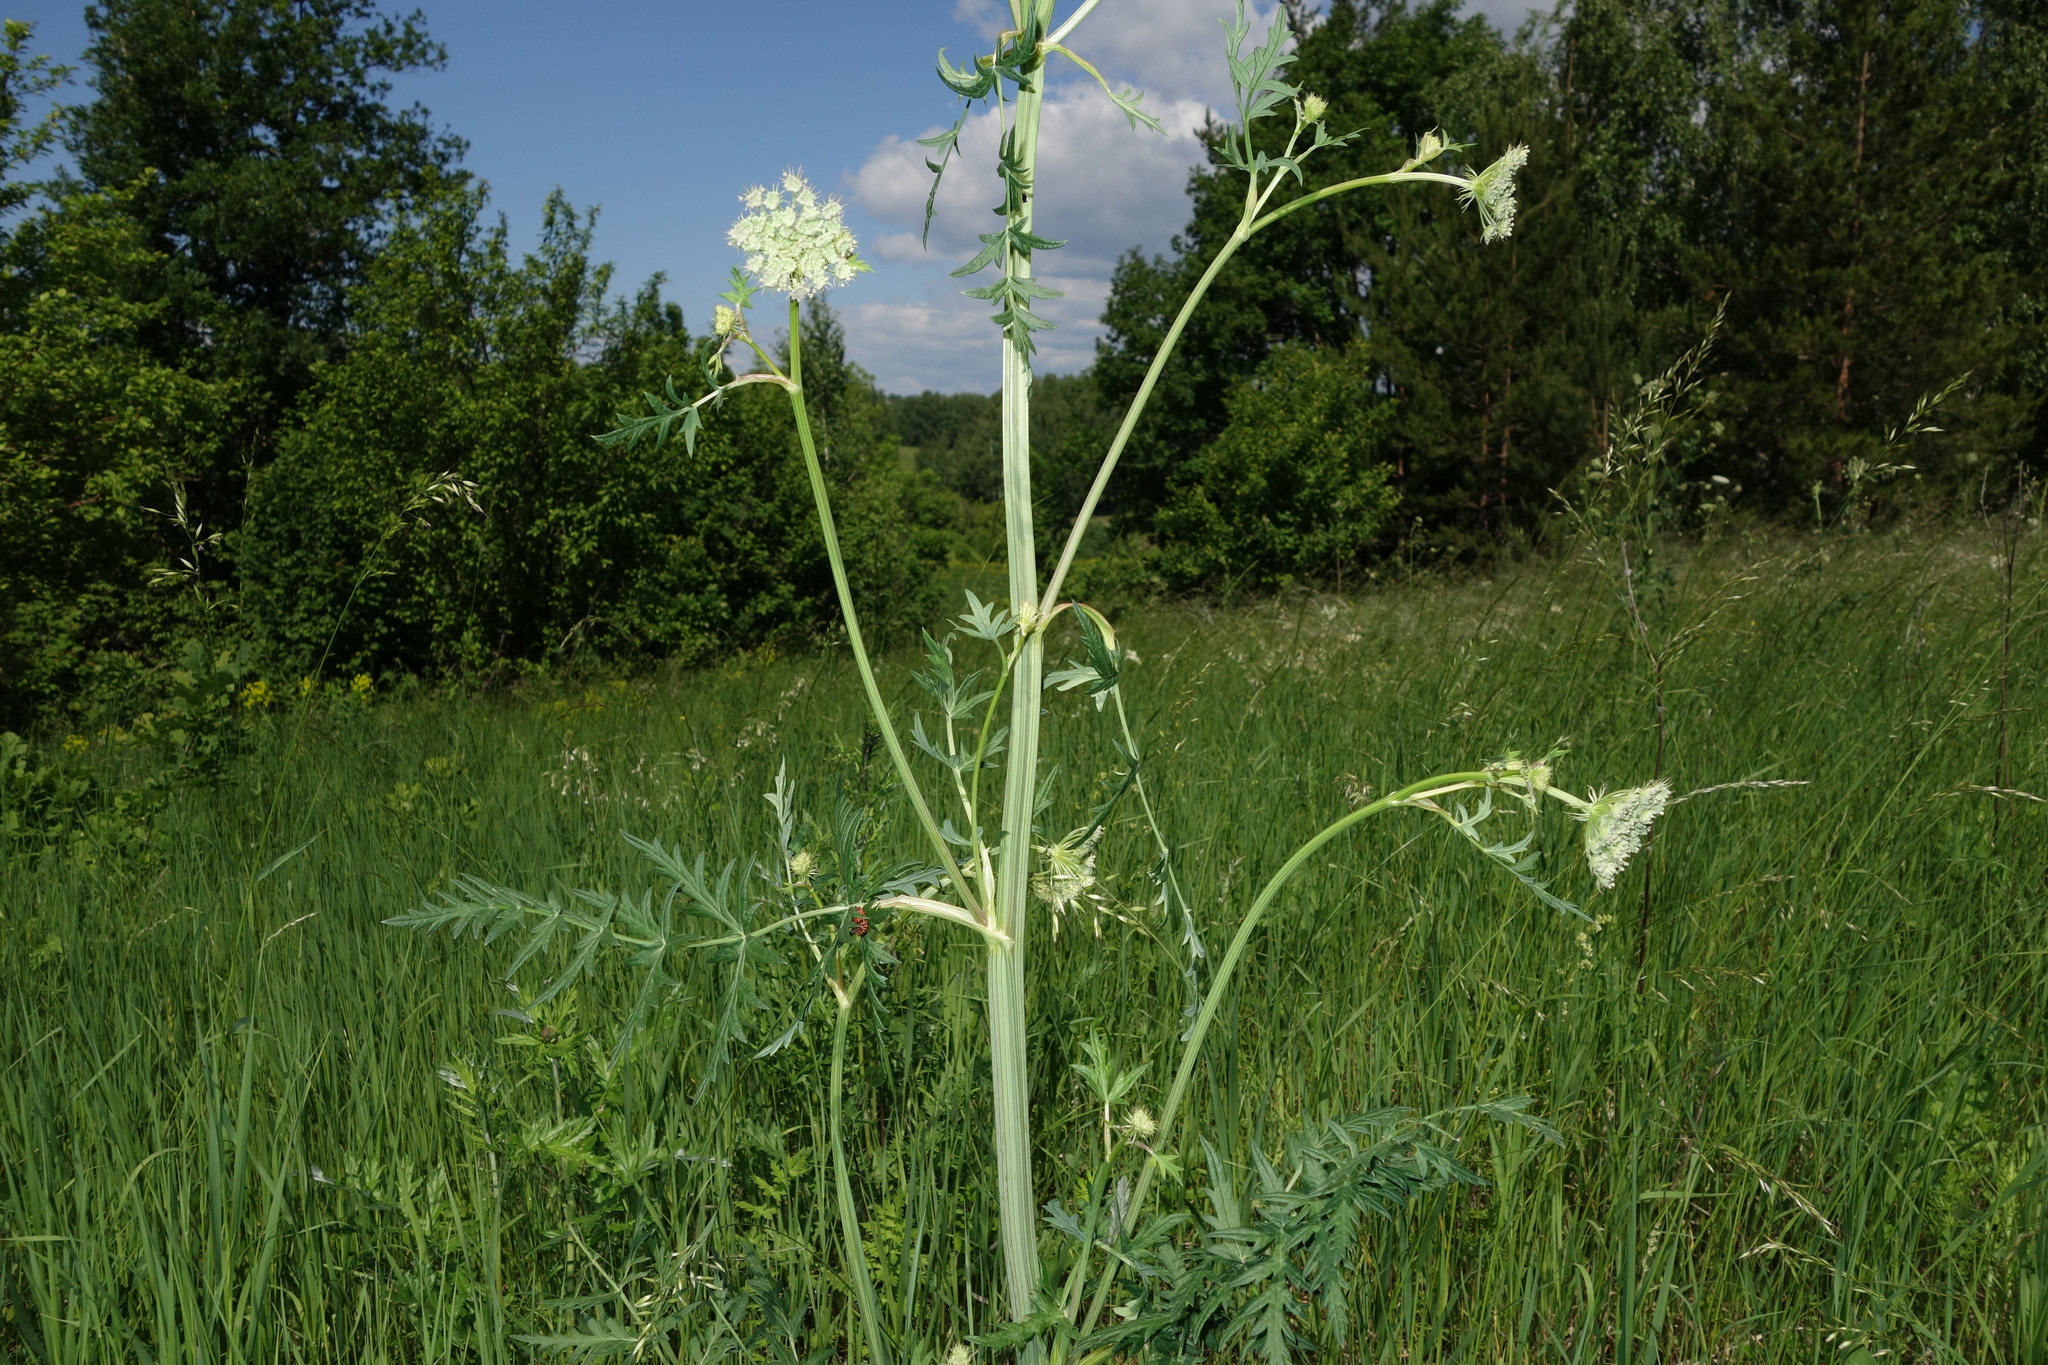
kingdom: Plantae
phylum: Tracheophyta
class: Magnoliopsida
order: Apiales
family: Apiaceae
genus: Seseli
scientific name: Seseli libanotis
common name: Mooncarrot
